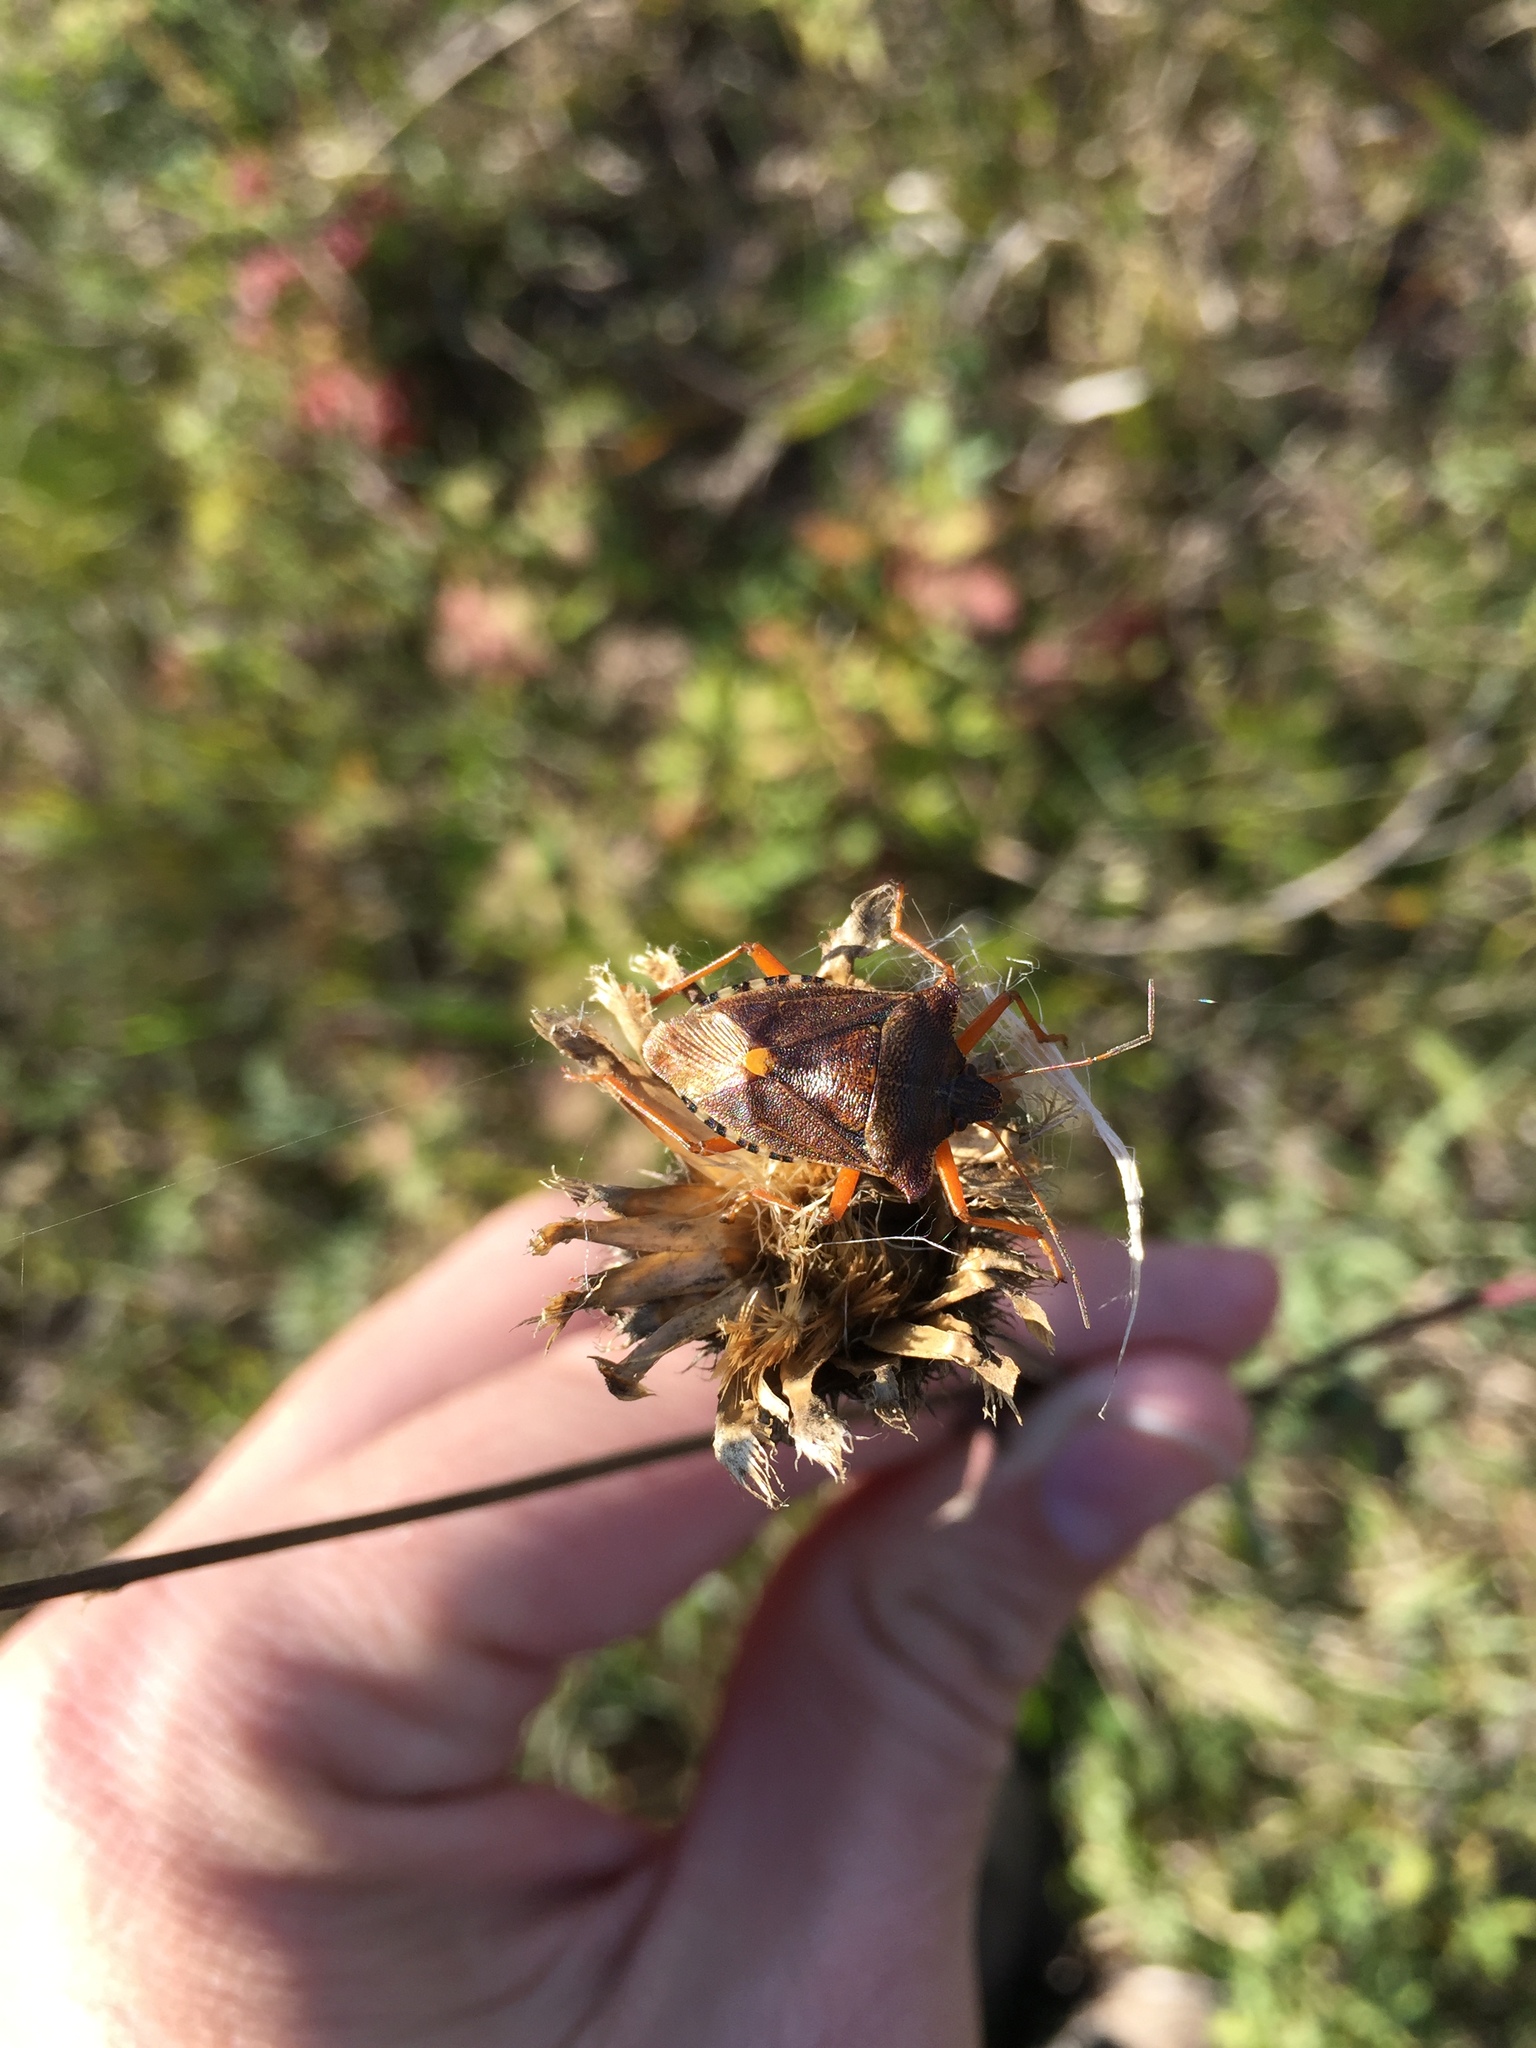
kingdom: Animalia
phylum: Arthropoda
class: Insecta
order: Hemiptera
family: Pentatomidae
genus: Pentatoma
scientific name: Pentatoma rufipes
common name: Forest bug
